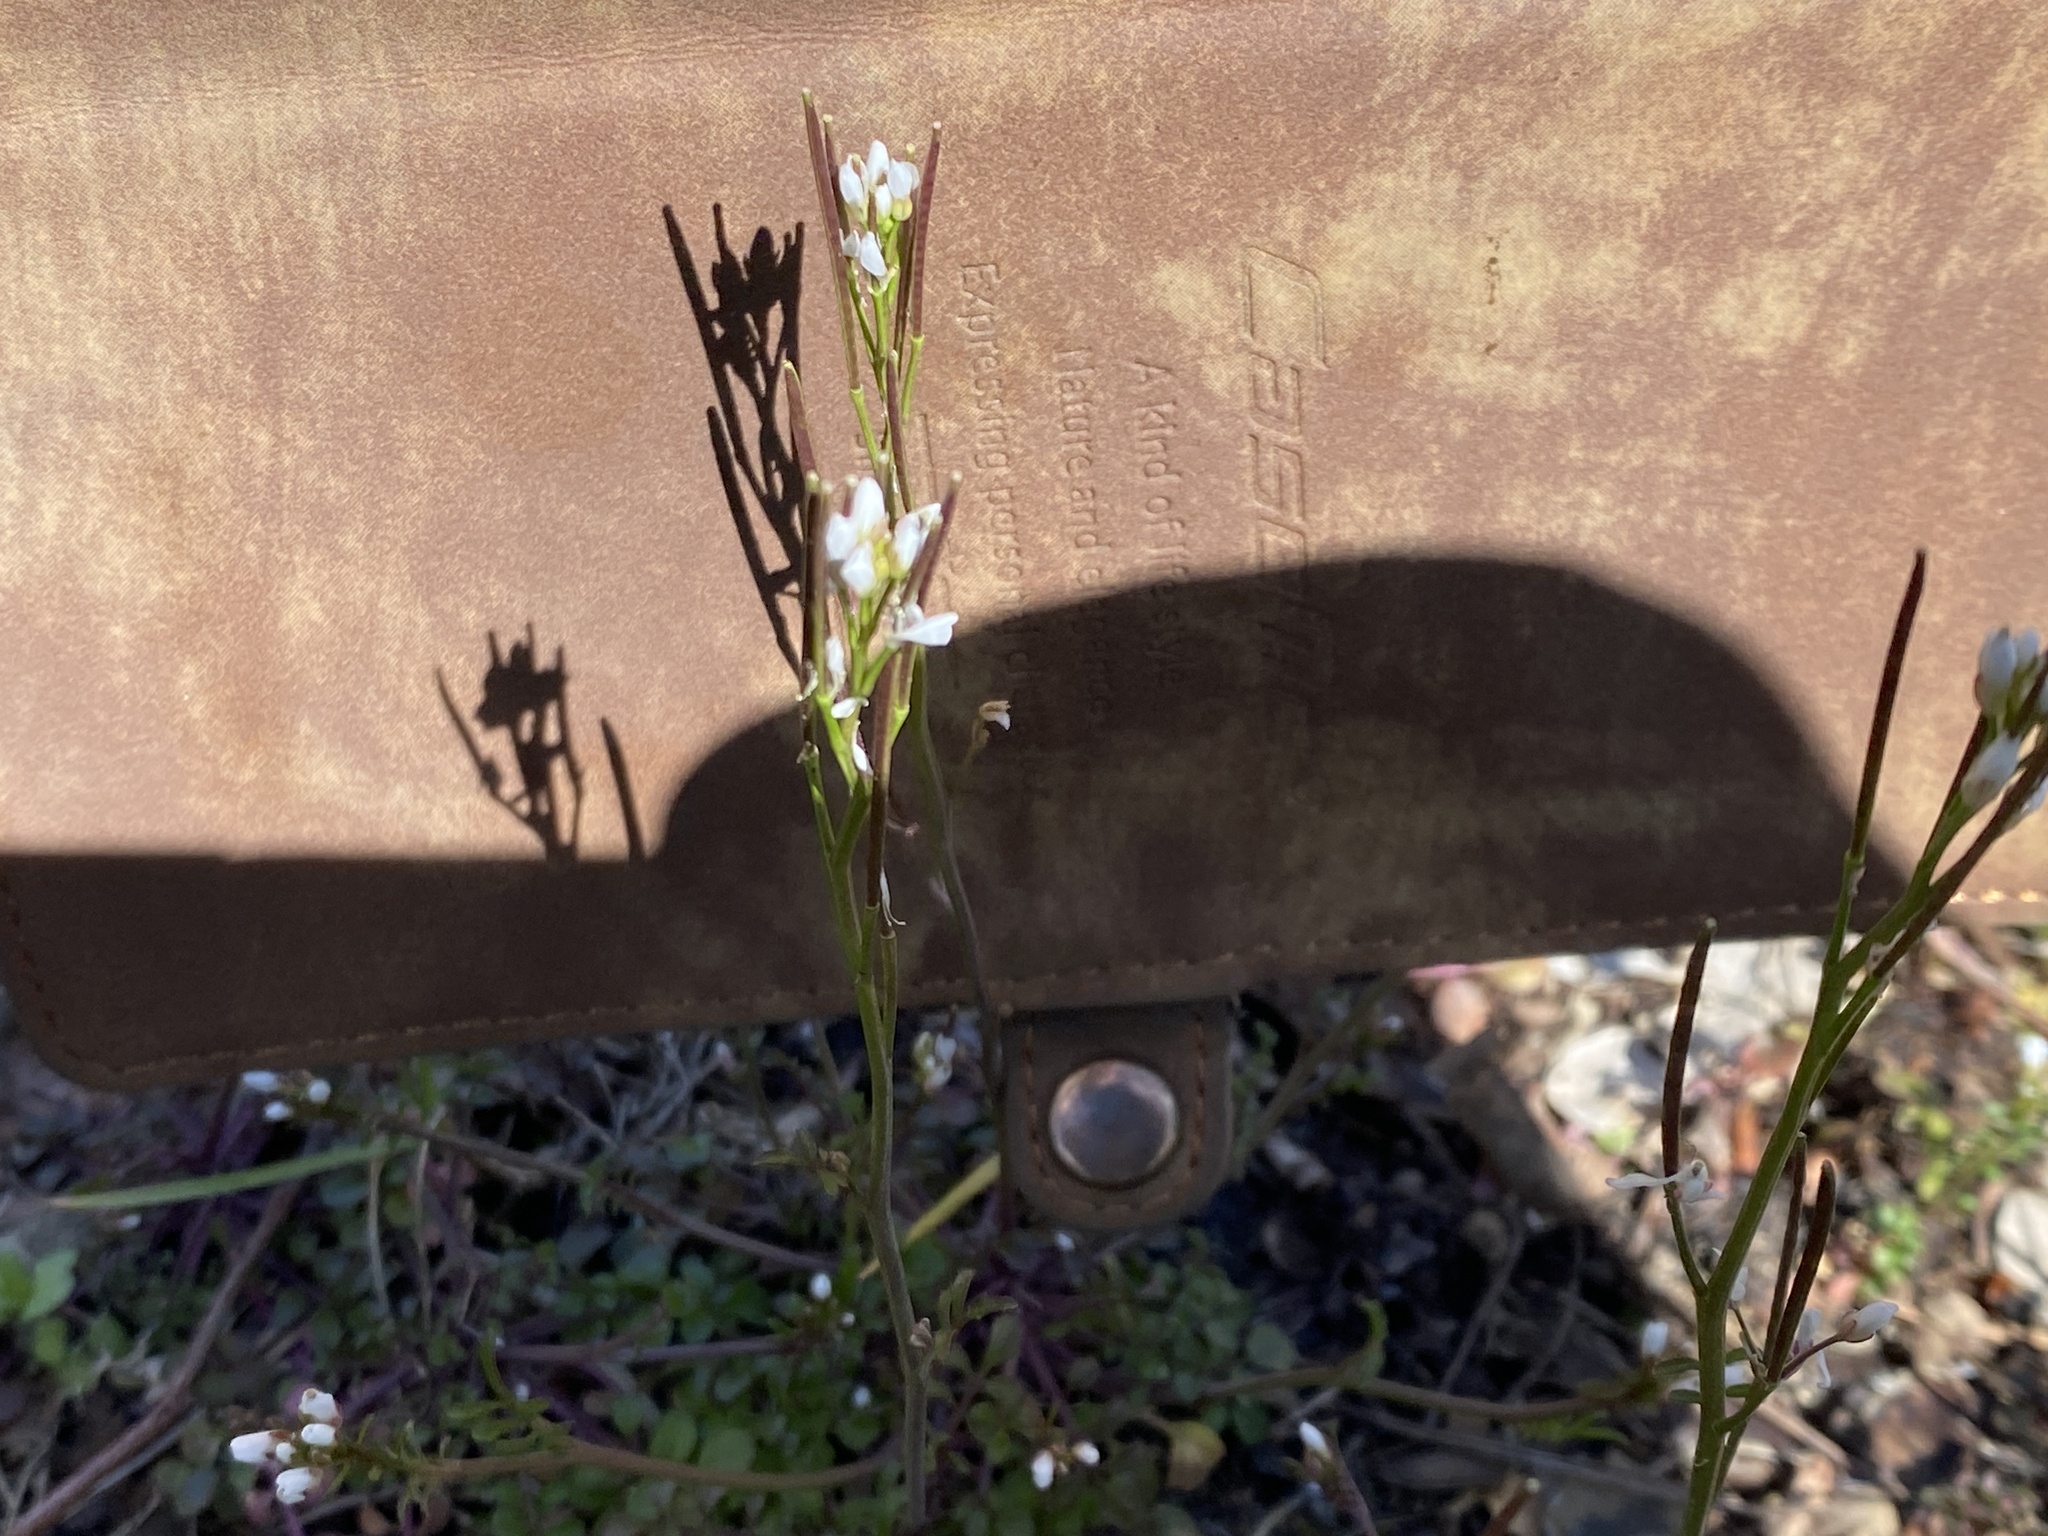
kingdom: Plantae
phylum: Tracheophyta
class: Magnoliopsida
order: Brassicales
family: Brassicaceae
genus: Cardamine
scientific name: Cardamine hirsuta
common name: Hairy bittercress
